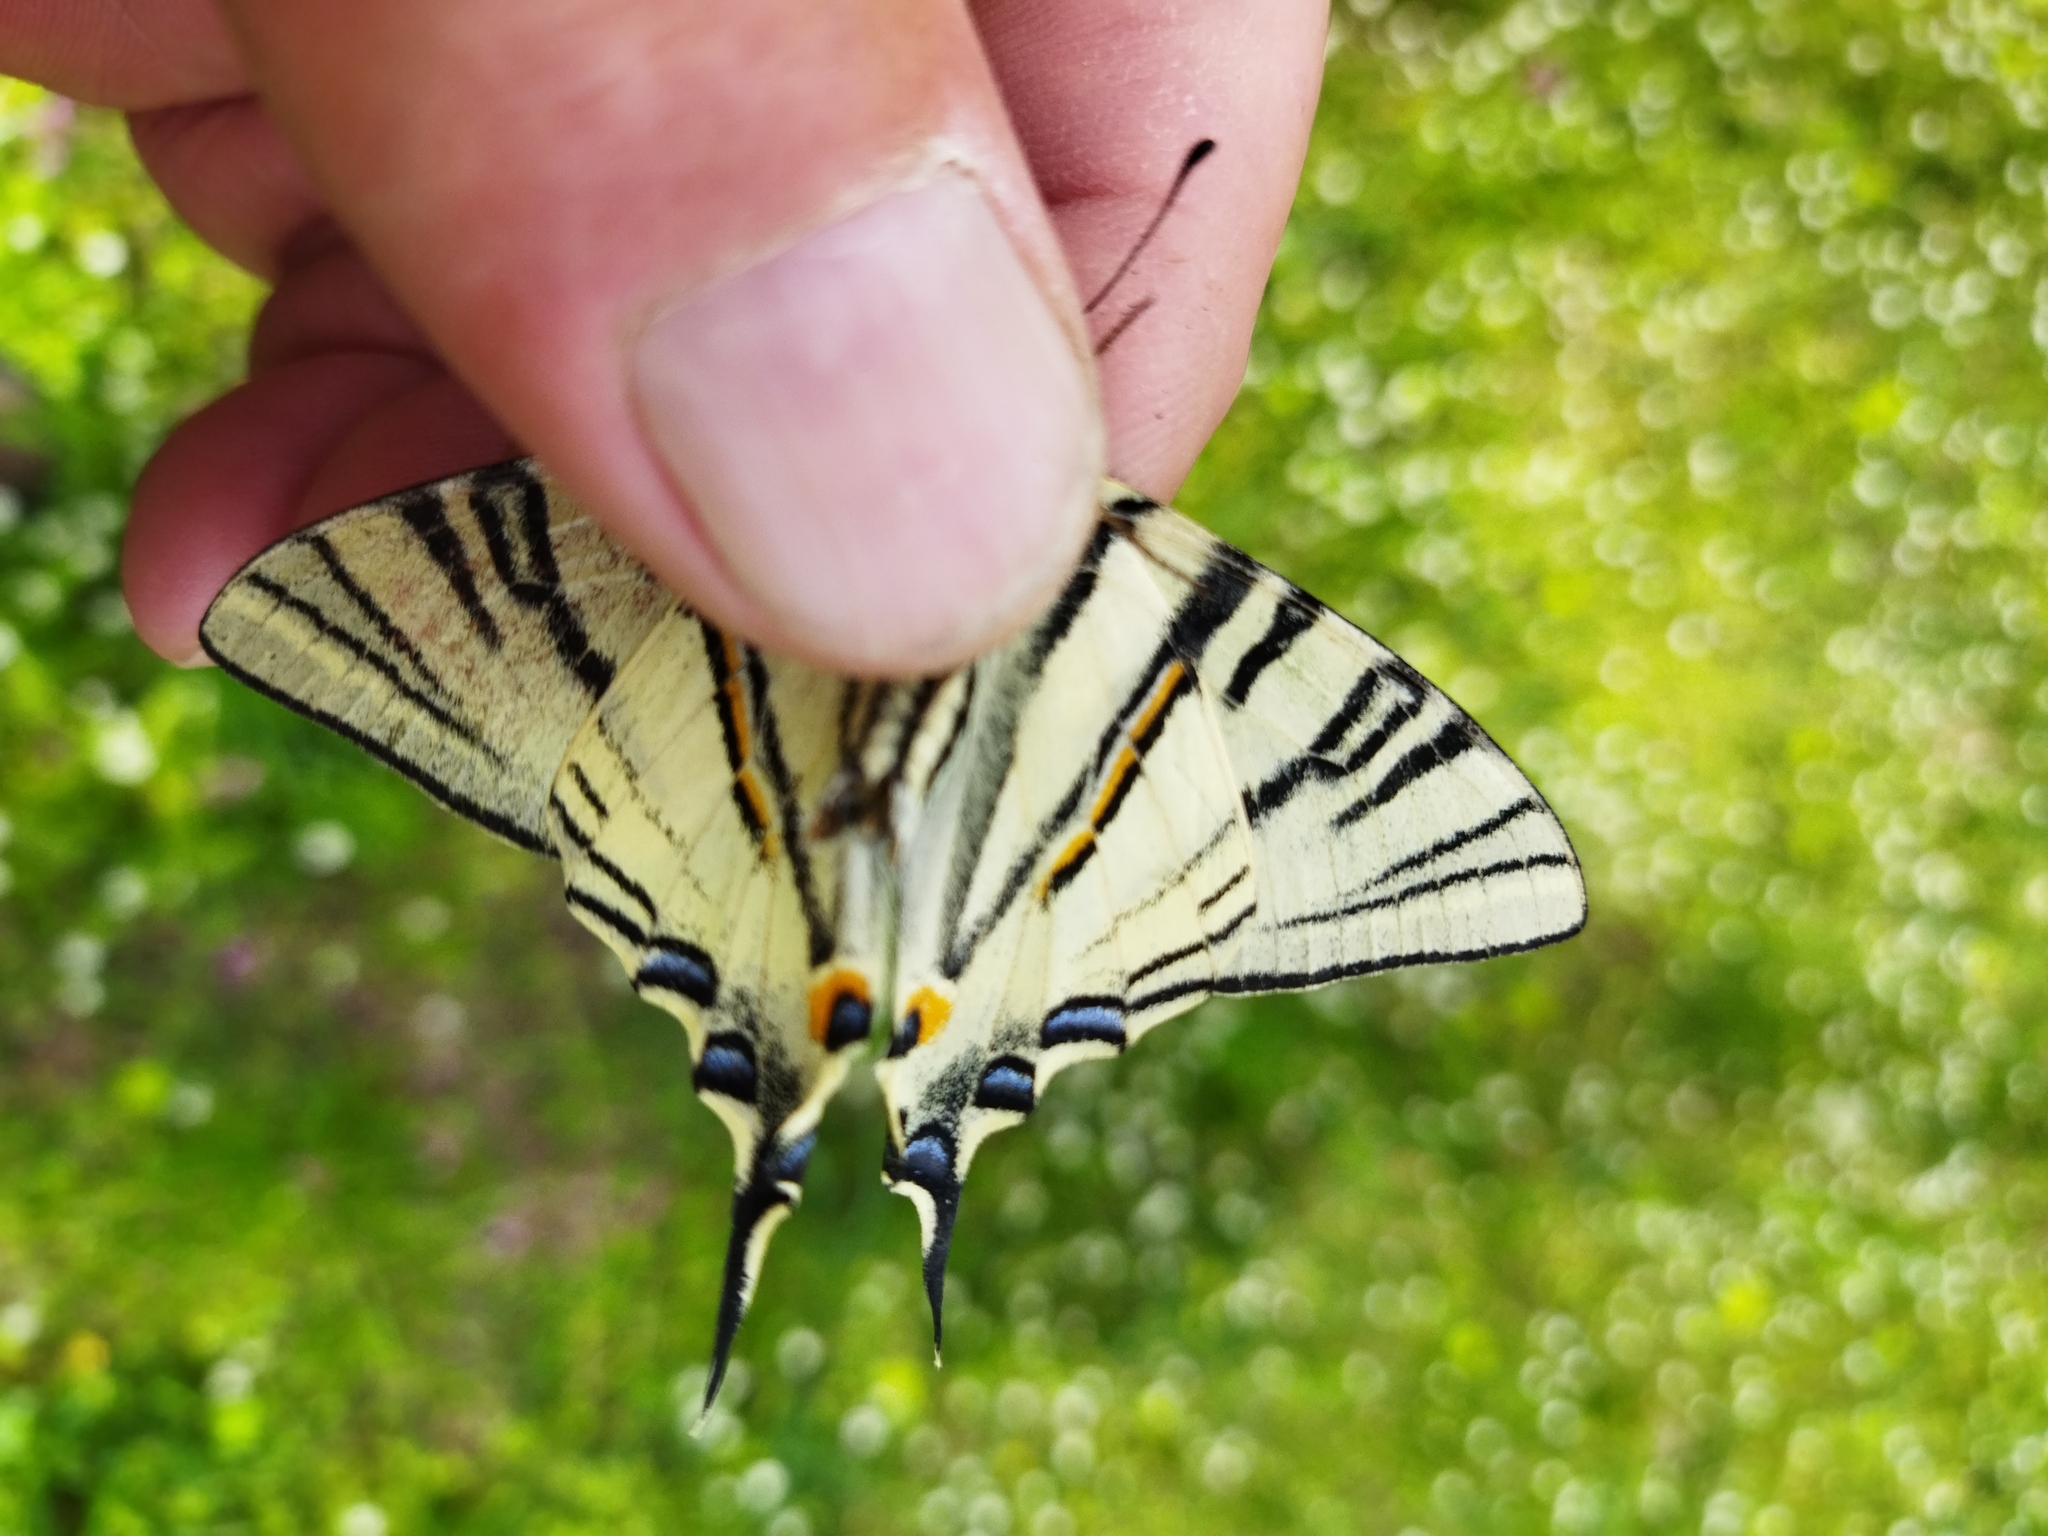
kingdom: Animalia
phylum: Arthropoda
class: Insecta
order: Lepidoptera
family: Papilionidae
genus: Iphiclides
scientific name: Iphiclides podalirius
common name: Scarce swallowtail
